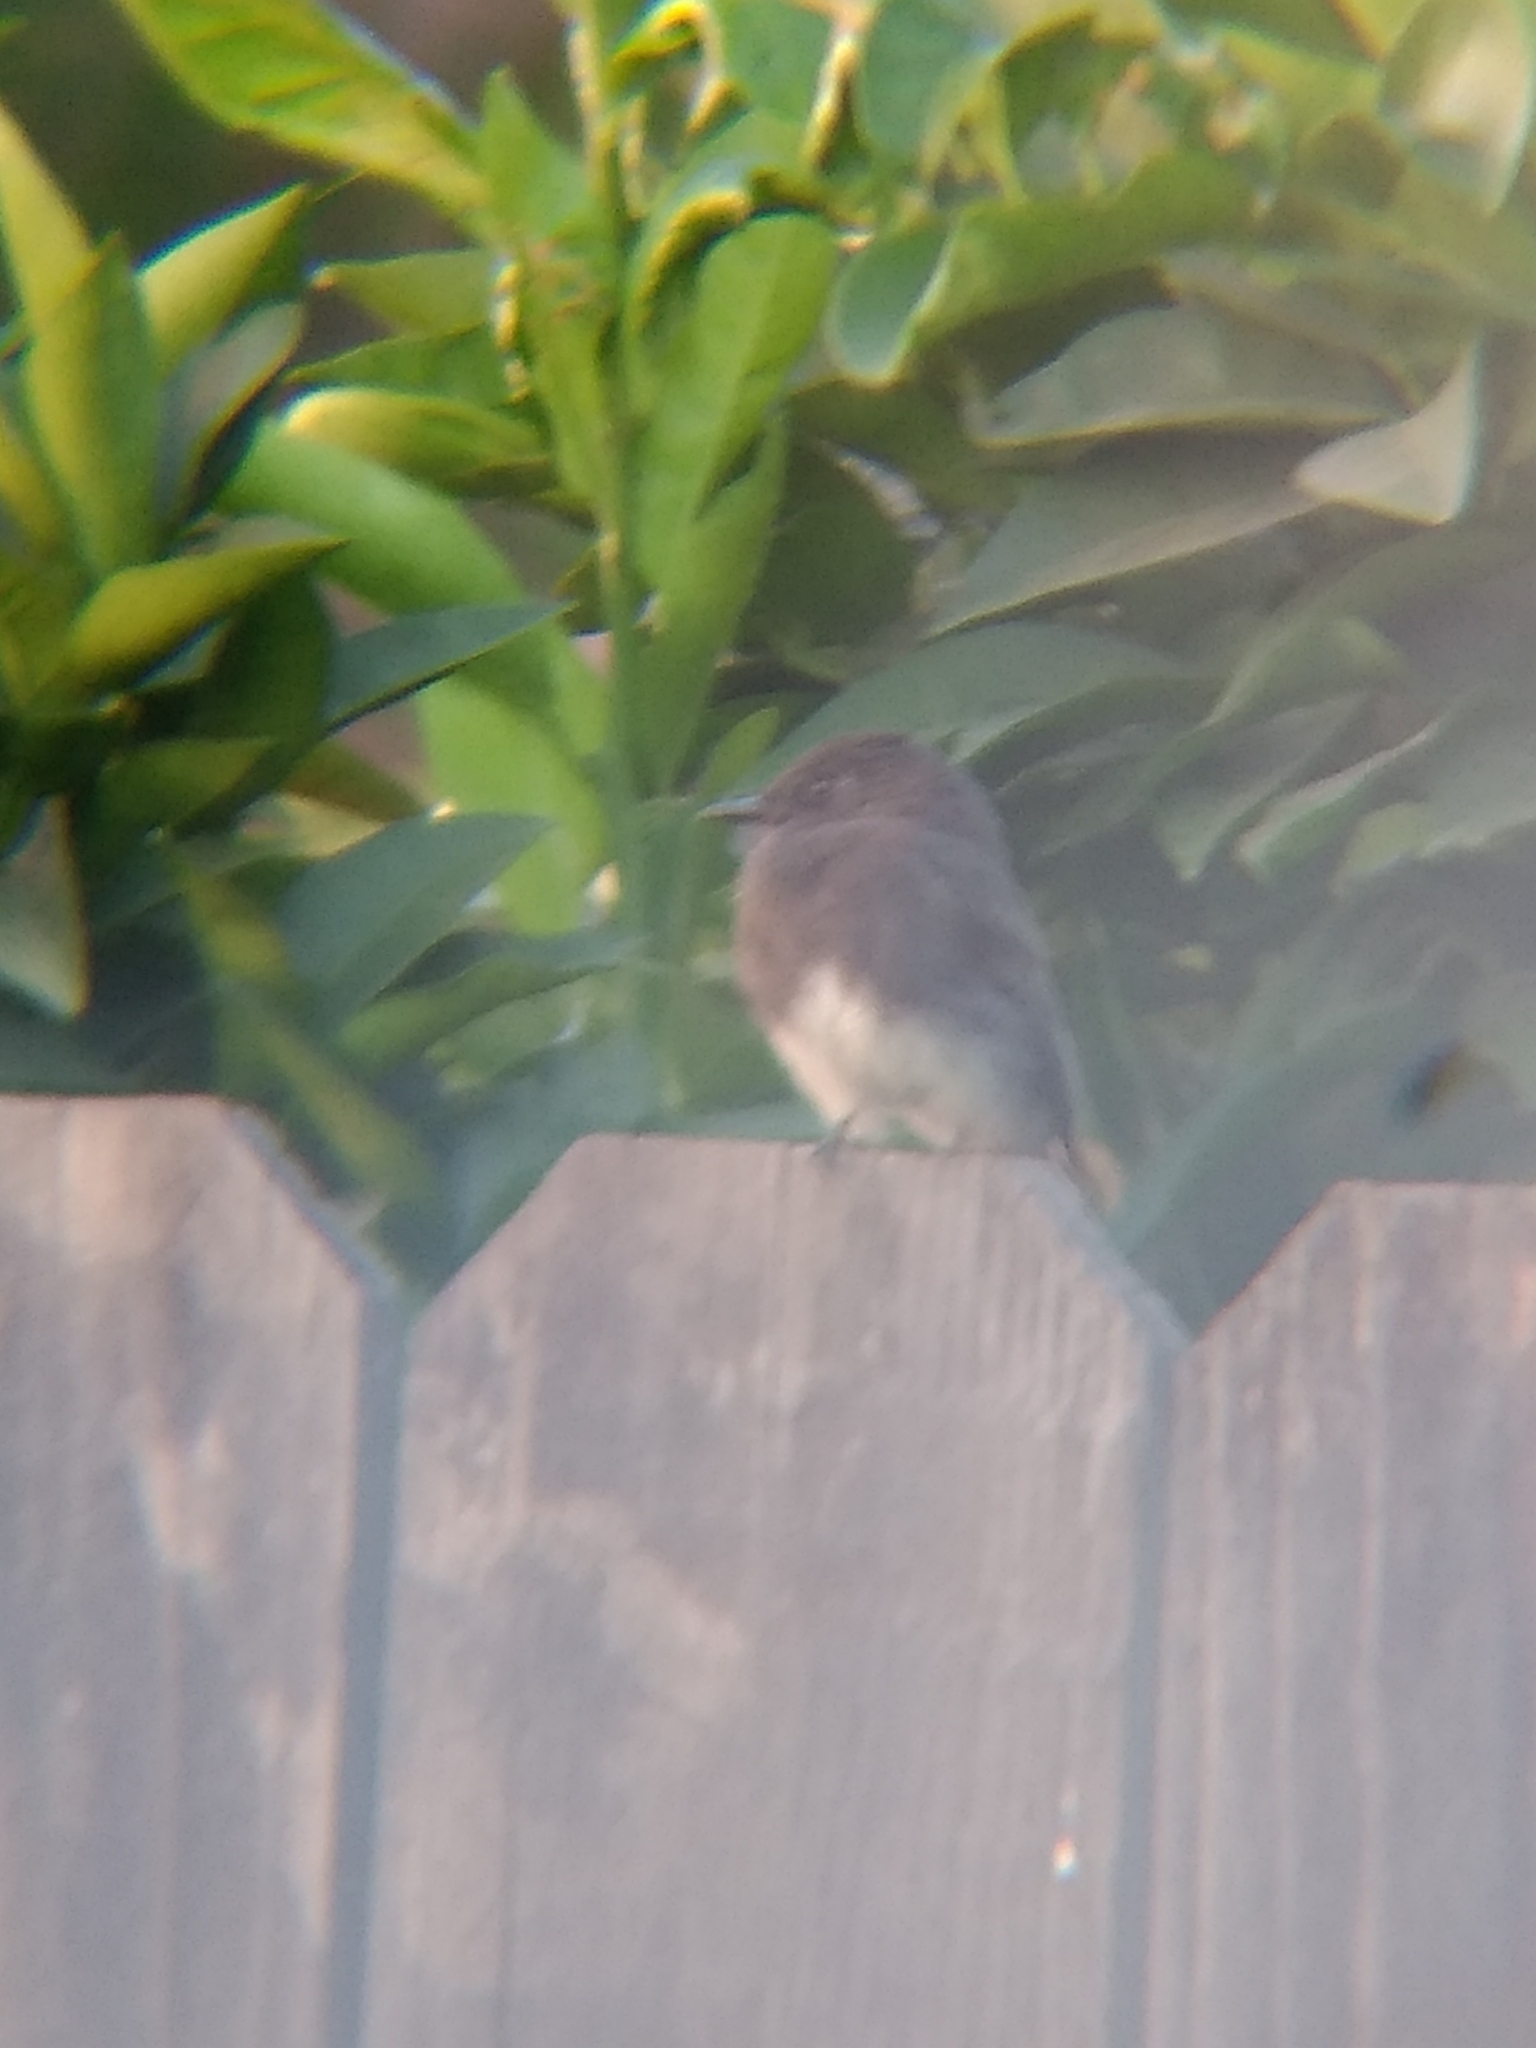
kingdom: Animalia
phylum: Chordata
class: Aves
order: Passeriformes
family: Tyrannidae
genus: Sayornis
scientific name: Sayornis nigricans
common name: Black phoebe
